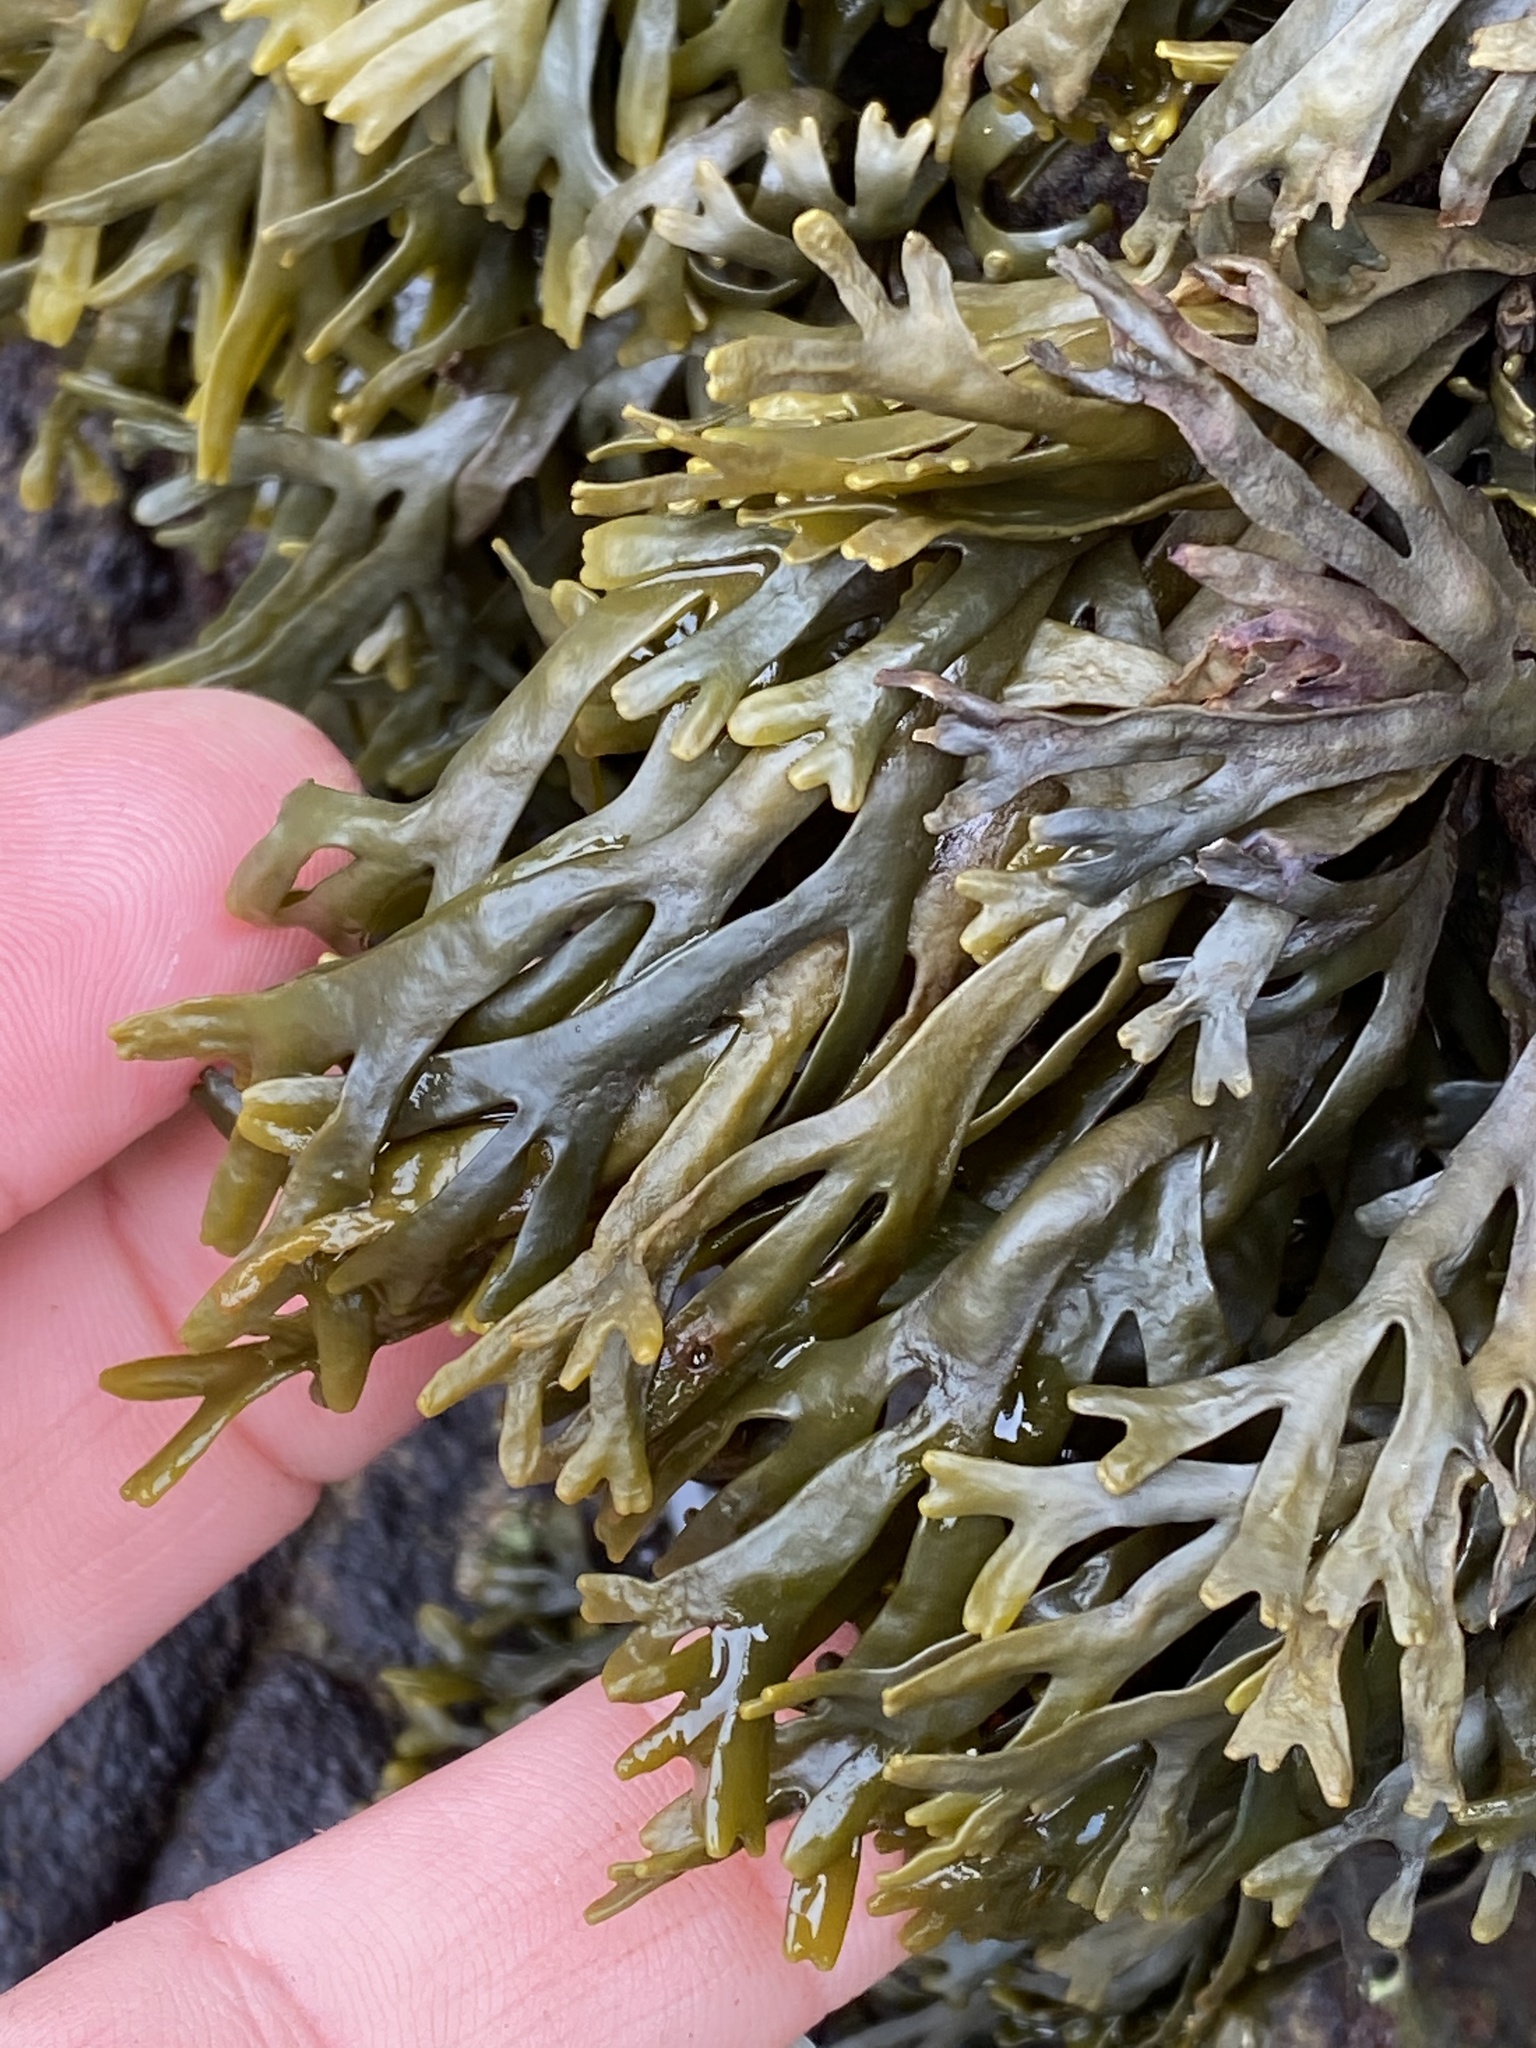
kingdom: Chromista
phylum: Ochrophyta
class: Phaeophyceae
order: Fucales
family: Fucaceae
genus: Pelvetiopsis
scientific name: Pelvetiopsis limitata
